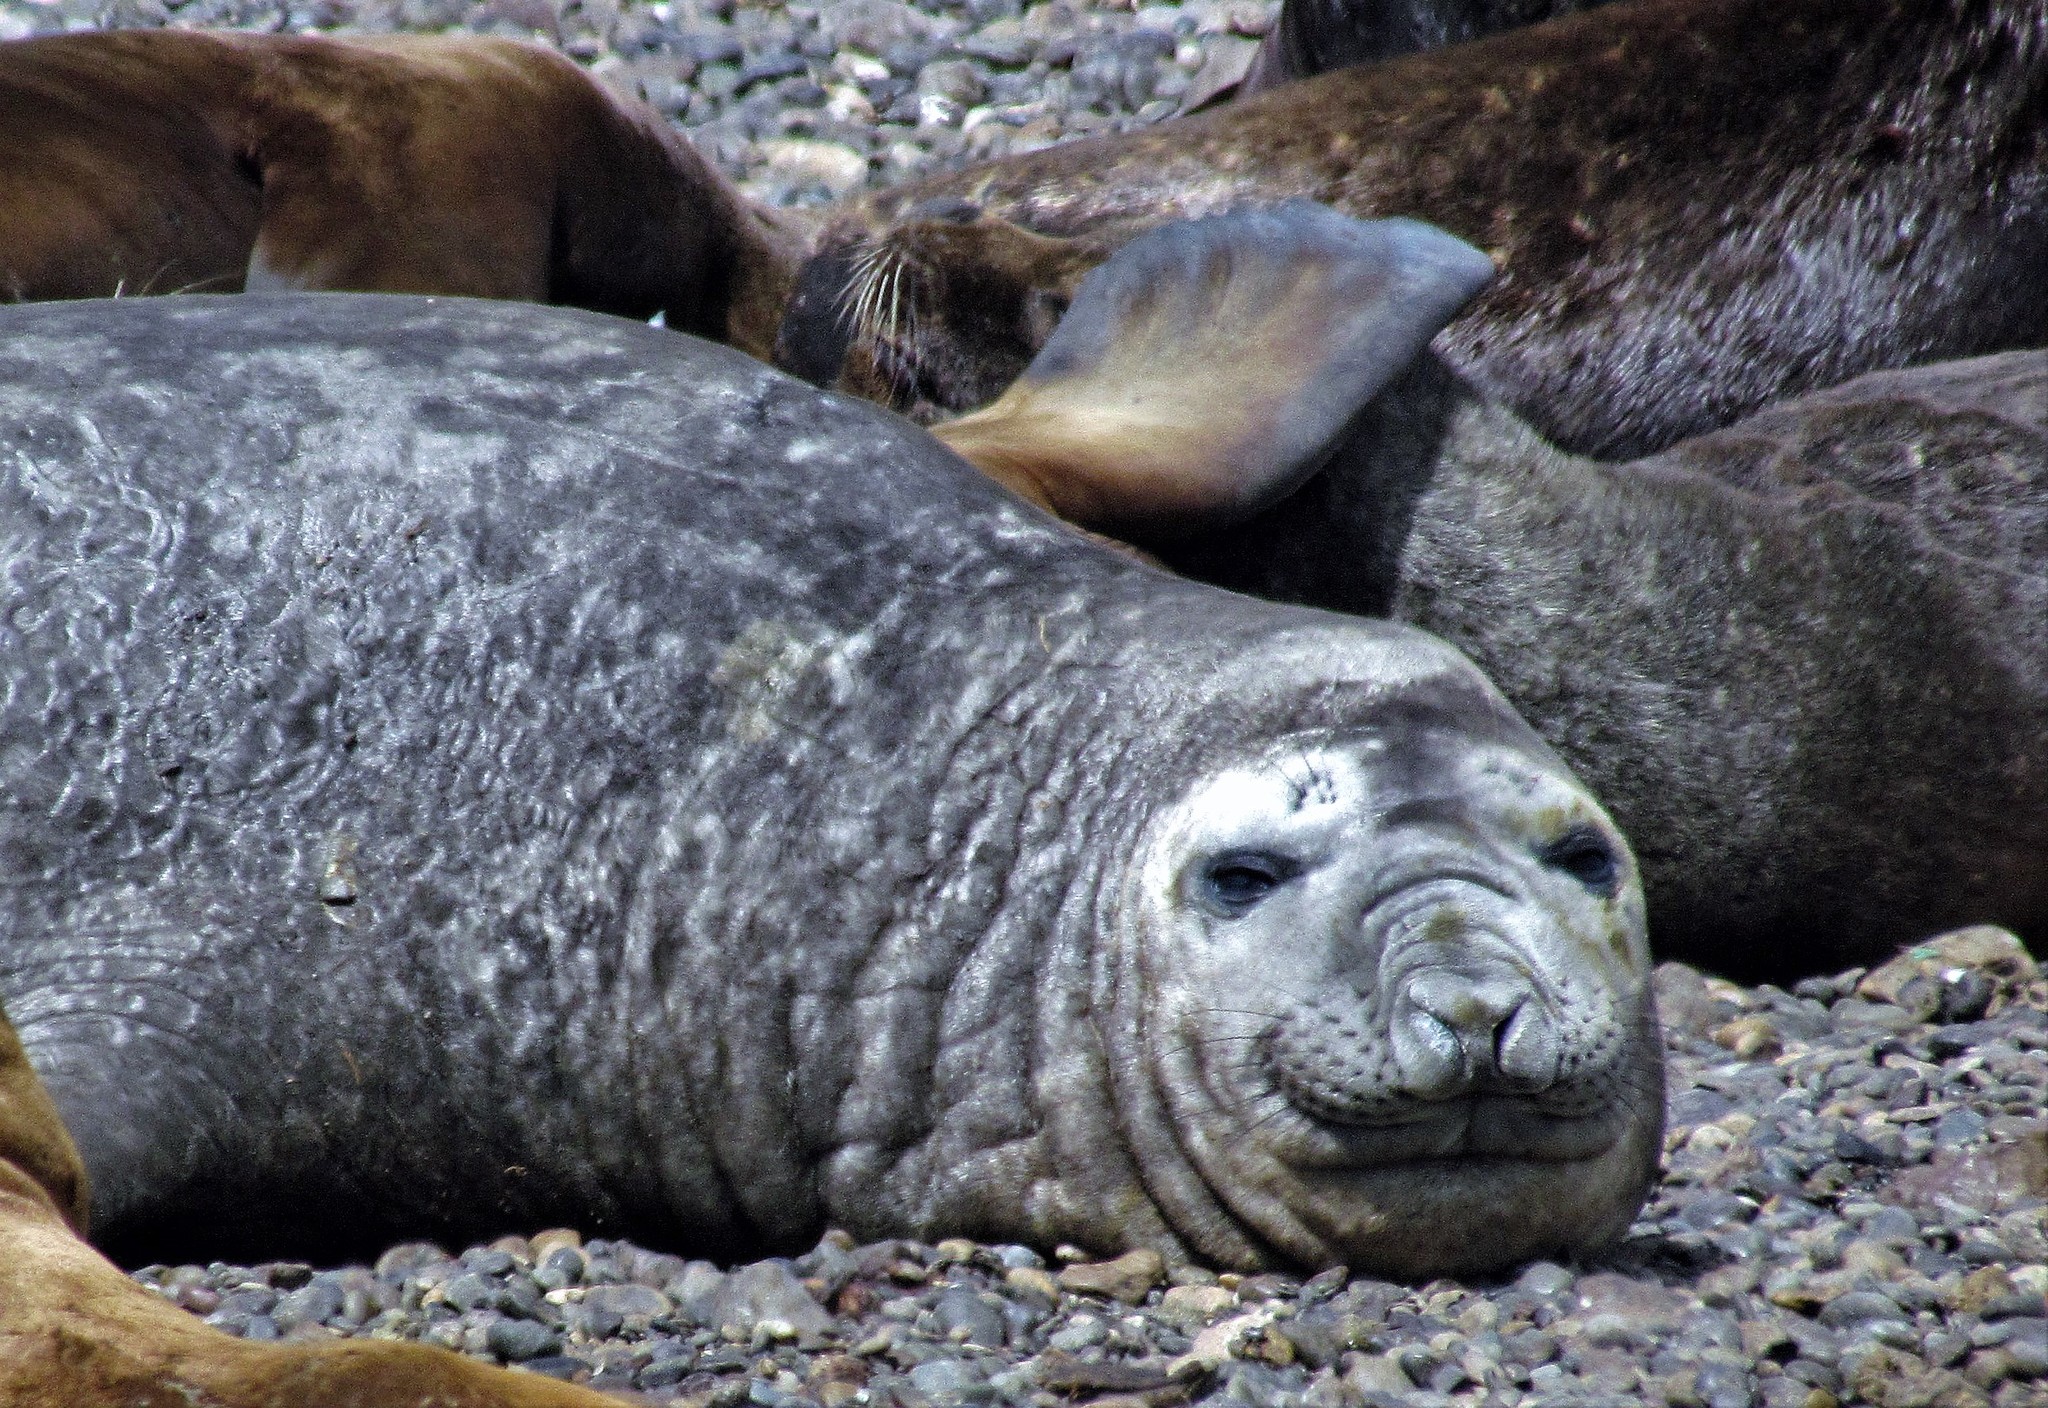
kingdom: Animalia
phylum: Chordata
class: Mammalia
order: Carnivora
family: Phocidae
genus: Mirounga
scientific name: Mirounga leonina
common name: Southern elephant seal
